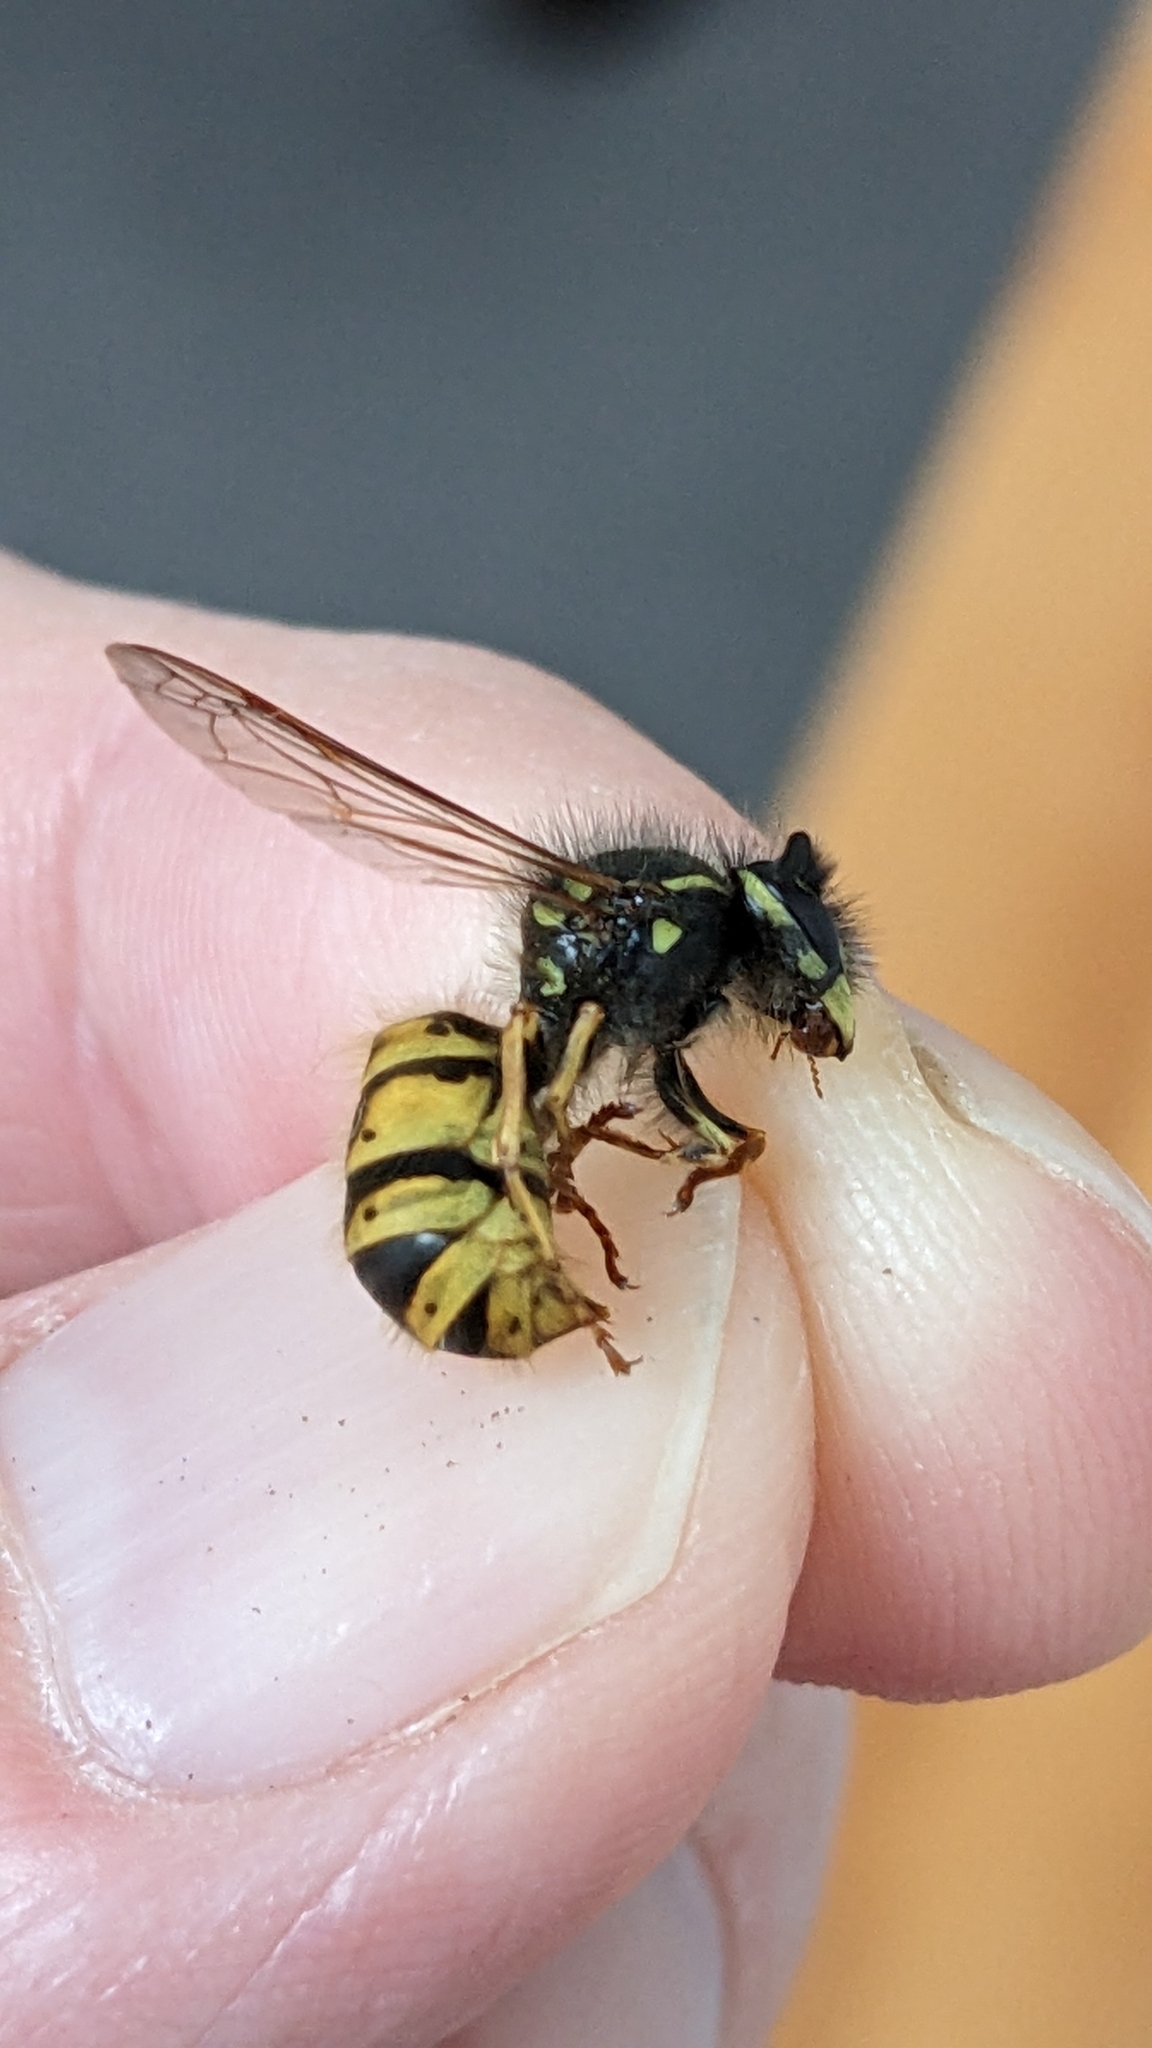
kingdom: Animalia
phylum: Arthropoda
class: Insecta
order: Hymenoptera
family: Vespidae
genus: Vespula
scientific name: Vespula vulgaris
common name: Common wasp
